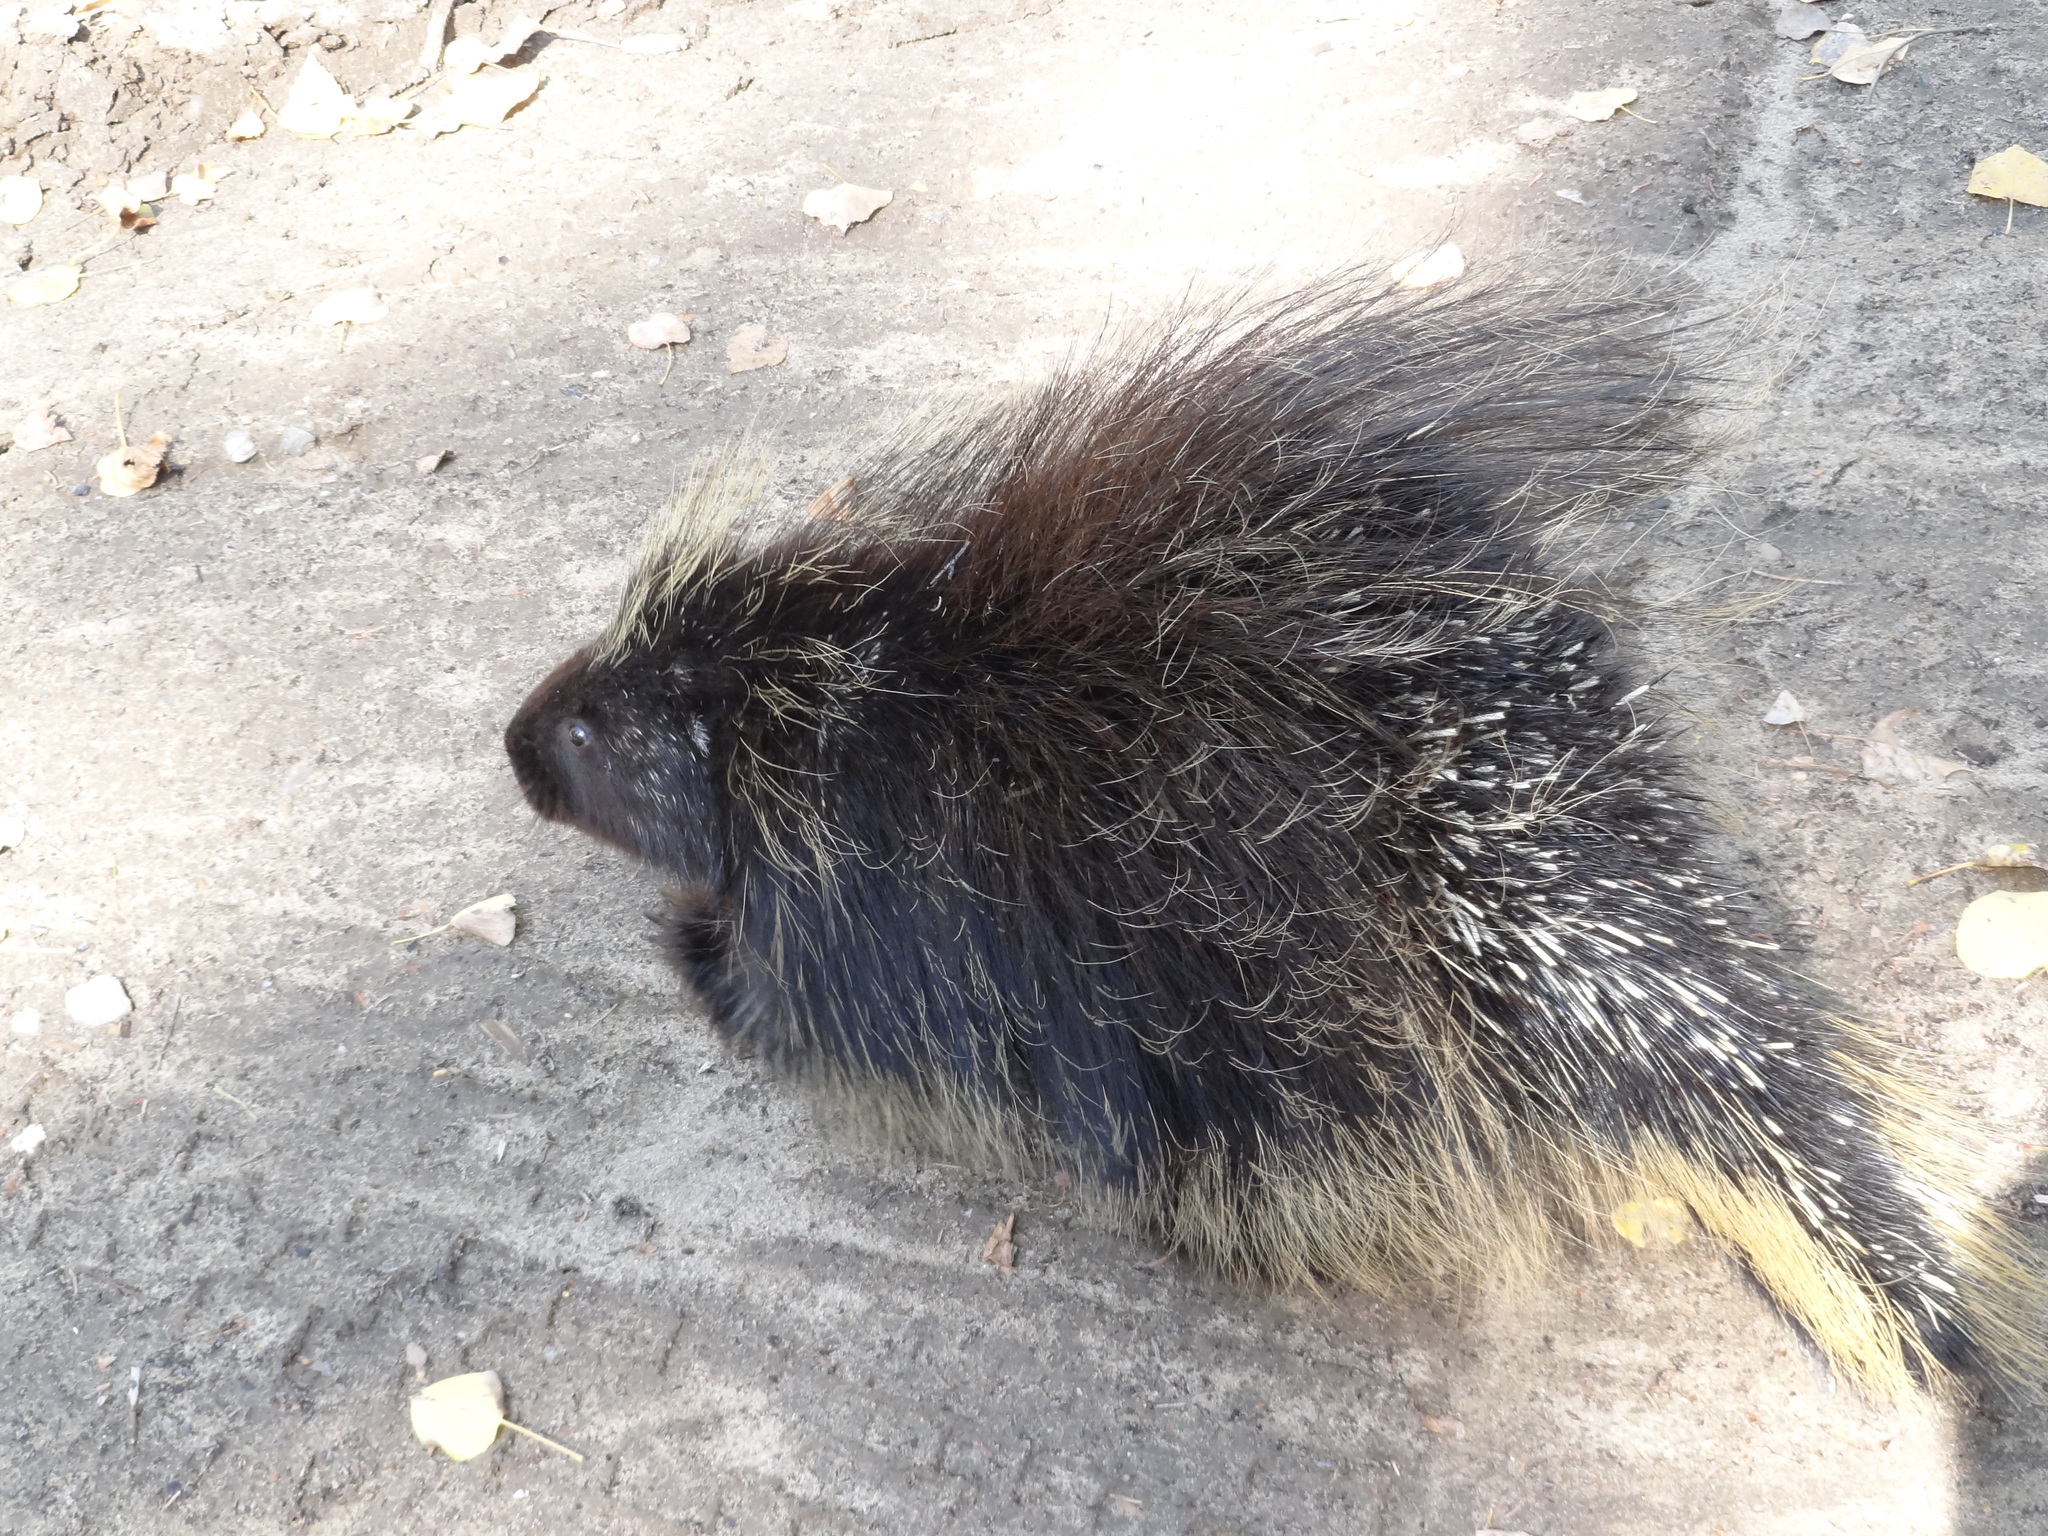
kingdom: Animalia
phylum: Chordata
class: Mammalia
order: Rodentia
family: Erethizontidae
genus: Erethizon
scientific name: Erethizon dorsatus
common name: North american porcupine
